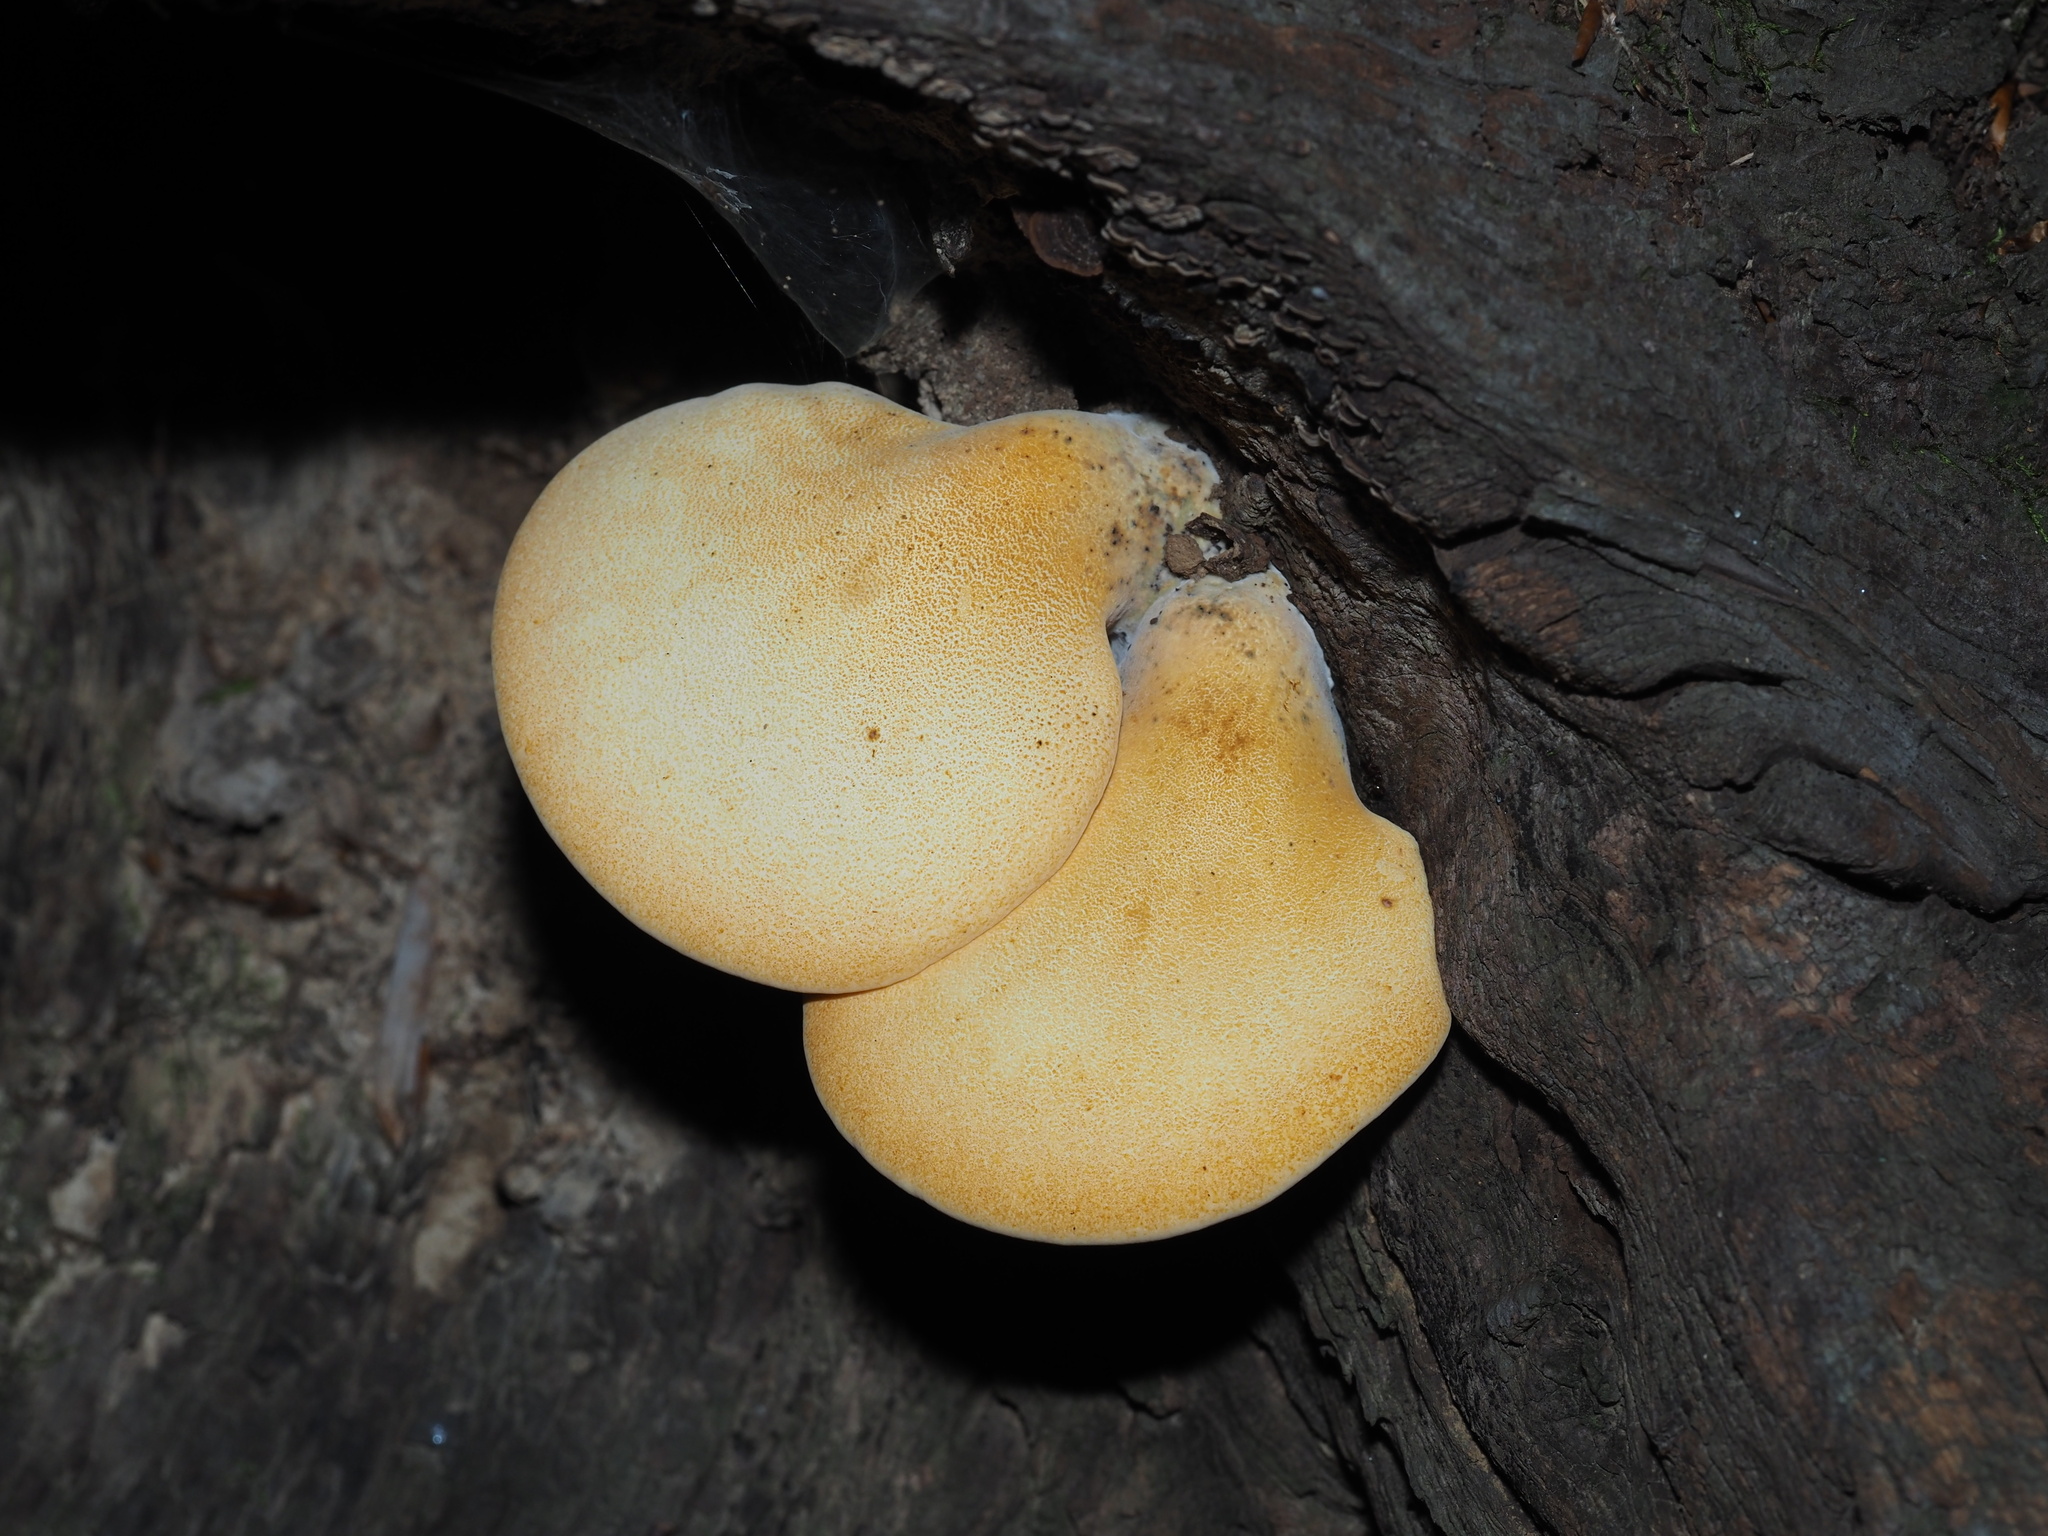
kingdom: Fungi
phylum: Basidiomycota
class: Agaricomycetes
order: Polyporales
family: Fomitopsidaceae
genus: Fomitopsis
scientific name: Fomitopsis
